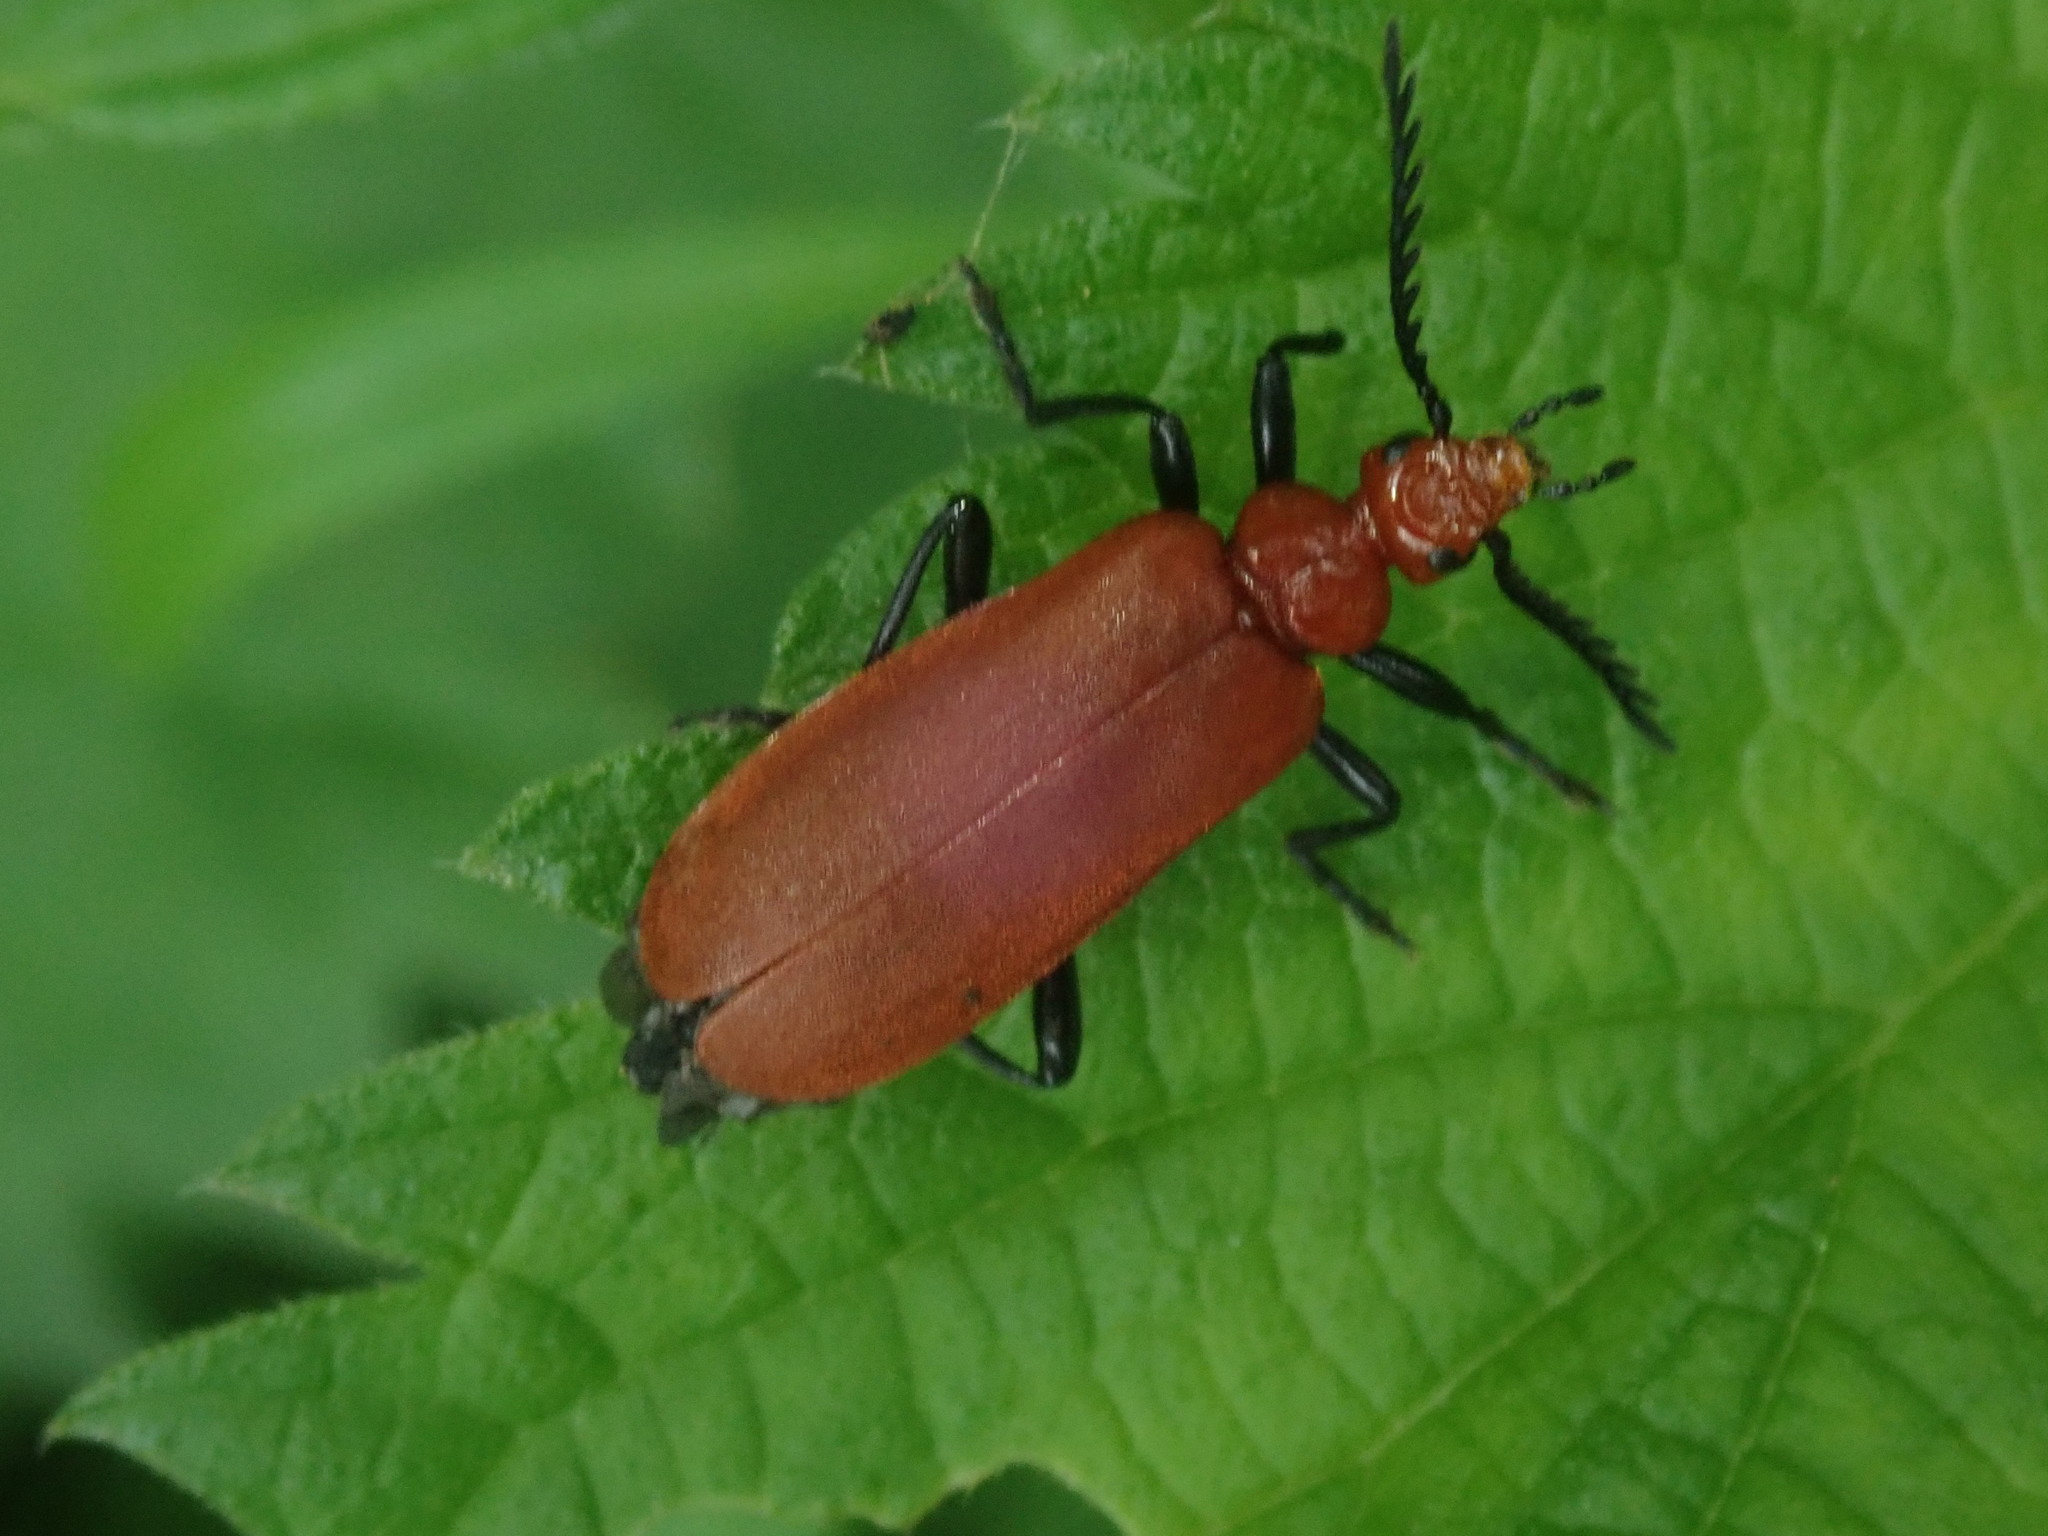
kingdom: Animalia
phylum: Arthropoda
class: Insecta
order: Coleoptera
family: Pyrochroidae
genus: Pyrochroa
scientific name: Pyrochroa serraticornis
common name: Red-headed cardinal beetle
